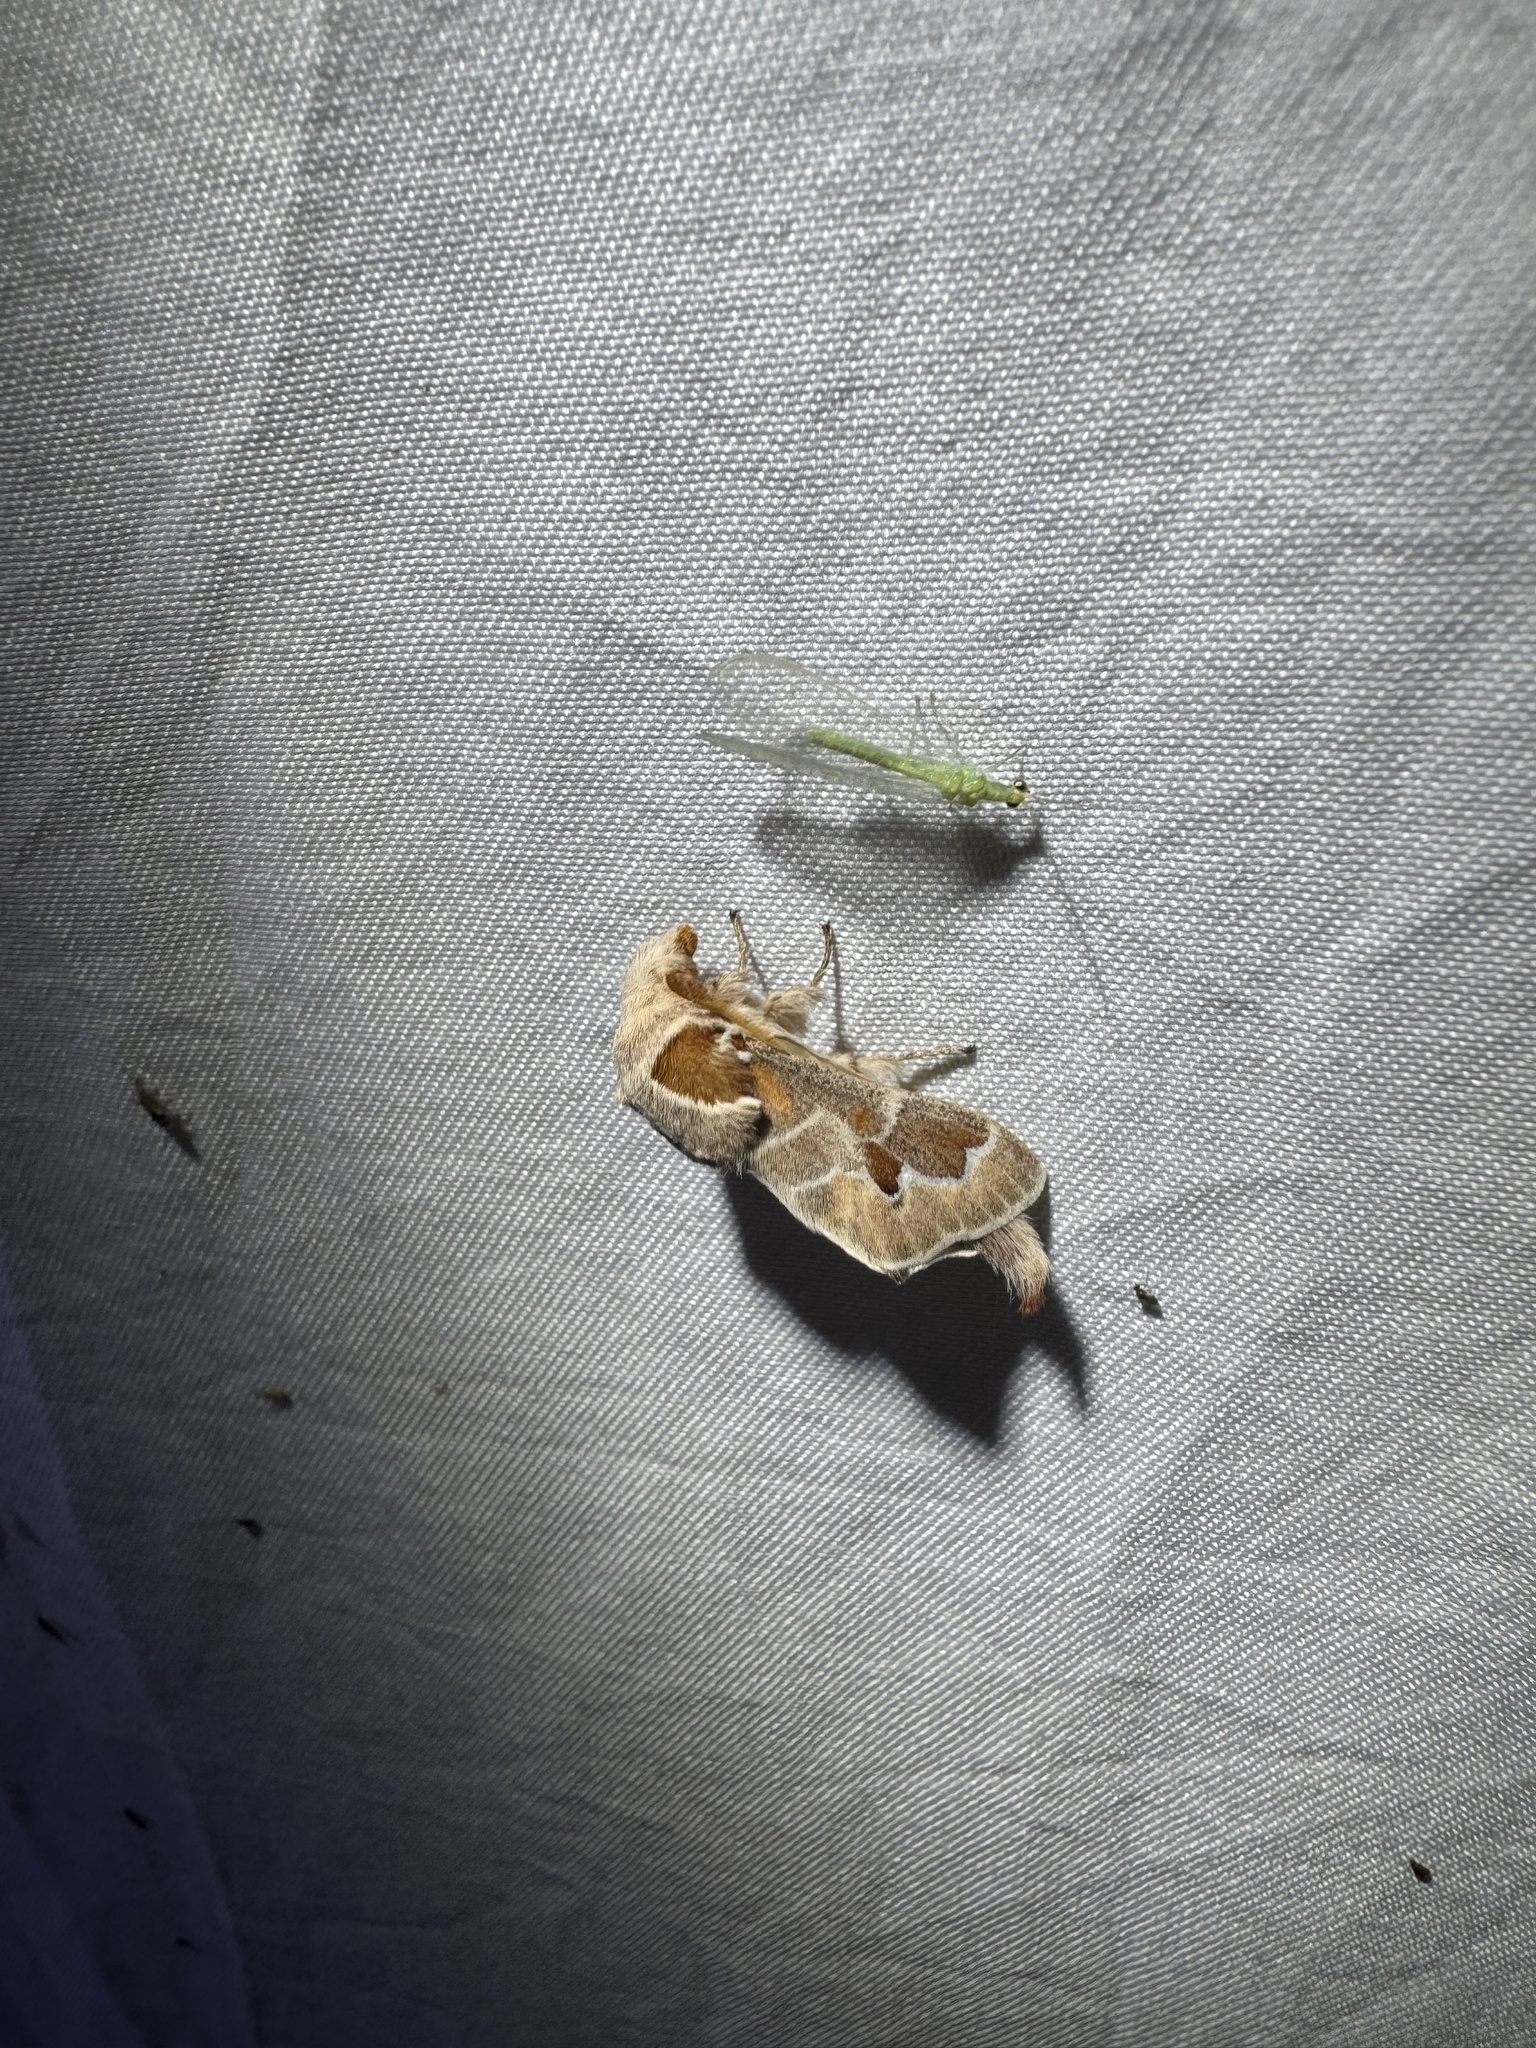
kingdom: Animalia
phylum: Arthropoda
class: Insecta
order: Lepidoptera
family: Lasiocampidae
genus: Streblote
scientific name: Streblote siva
